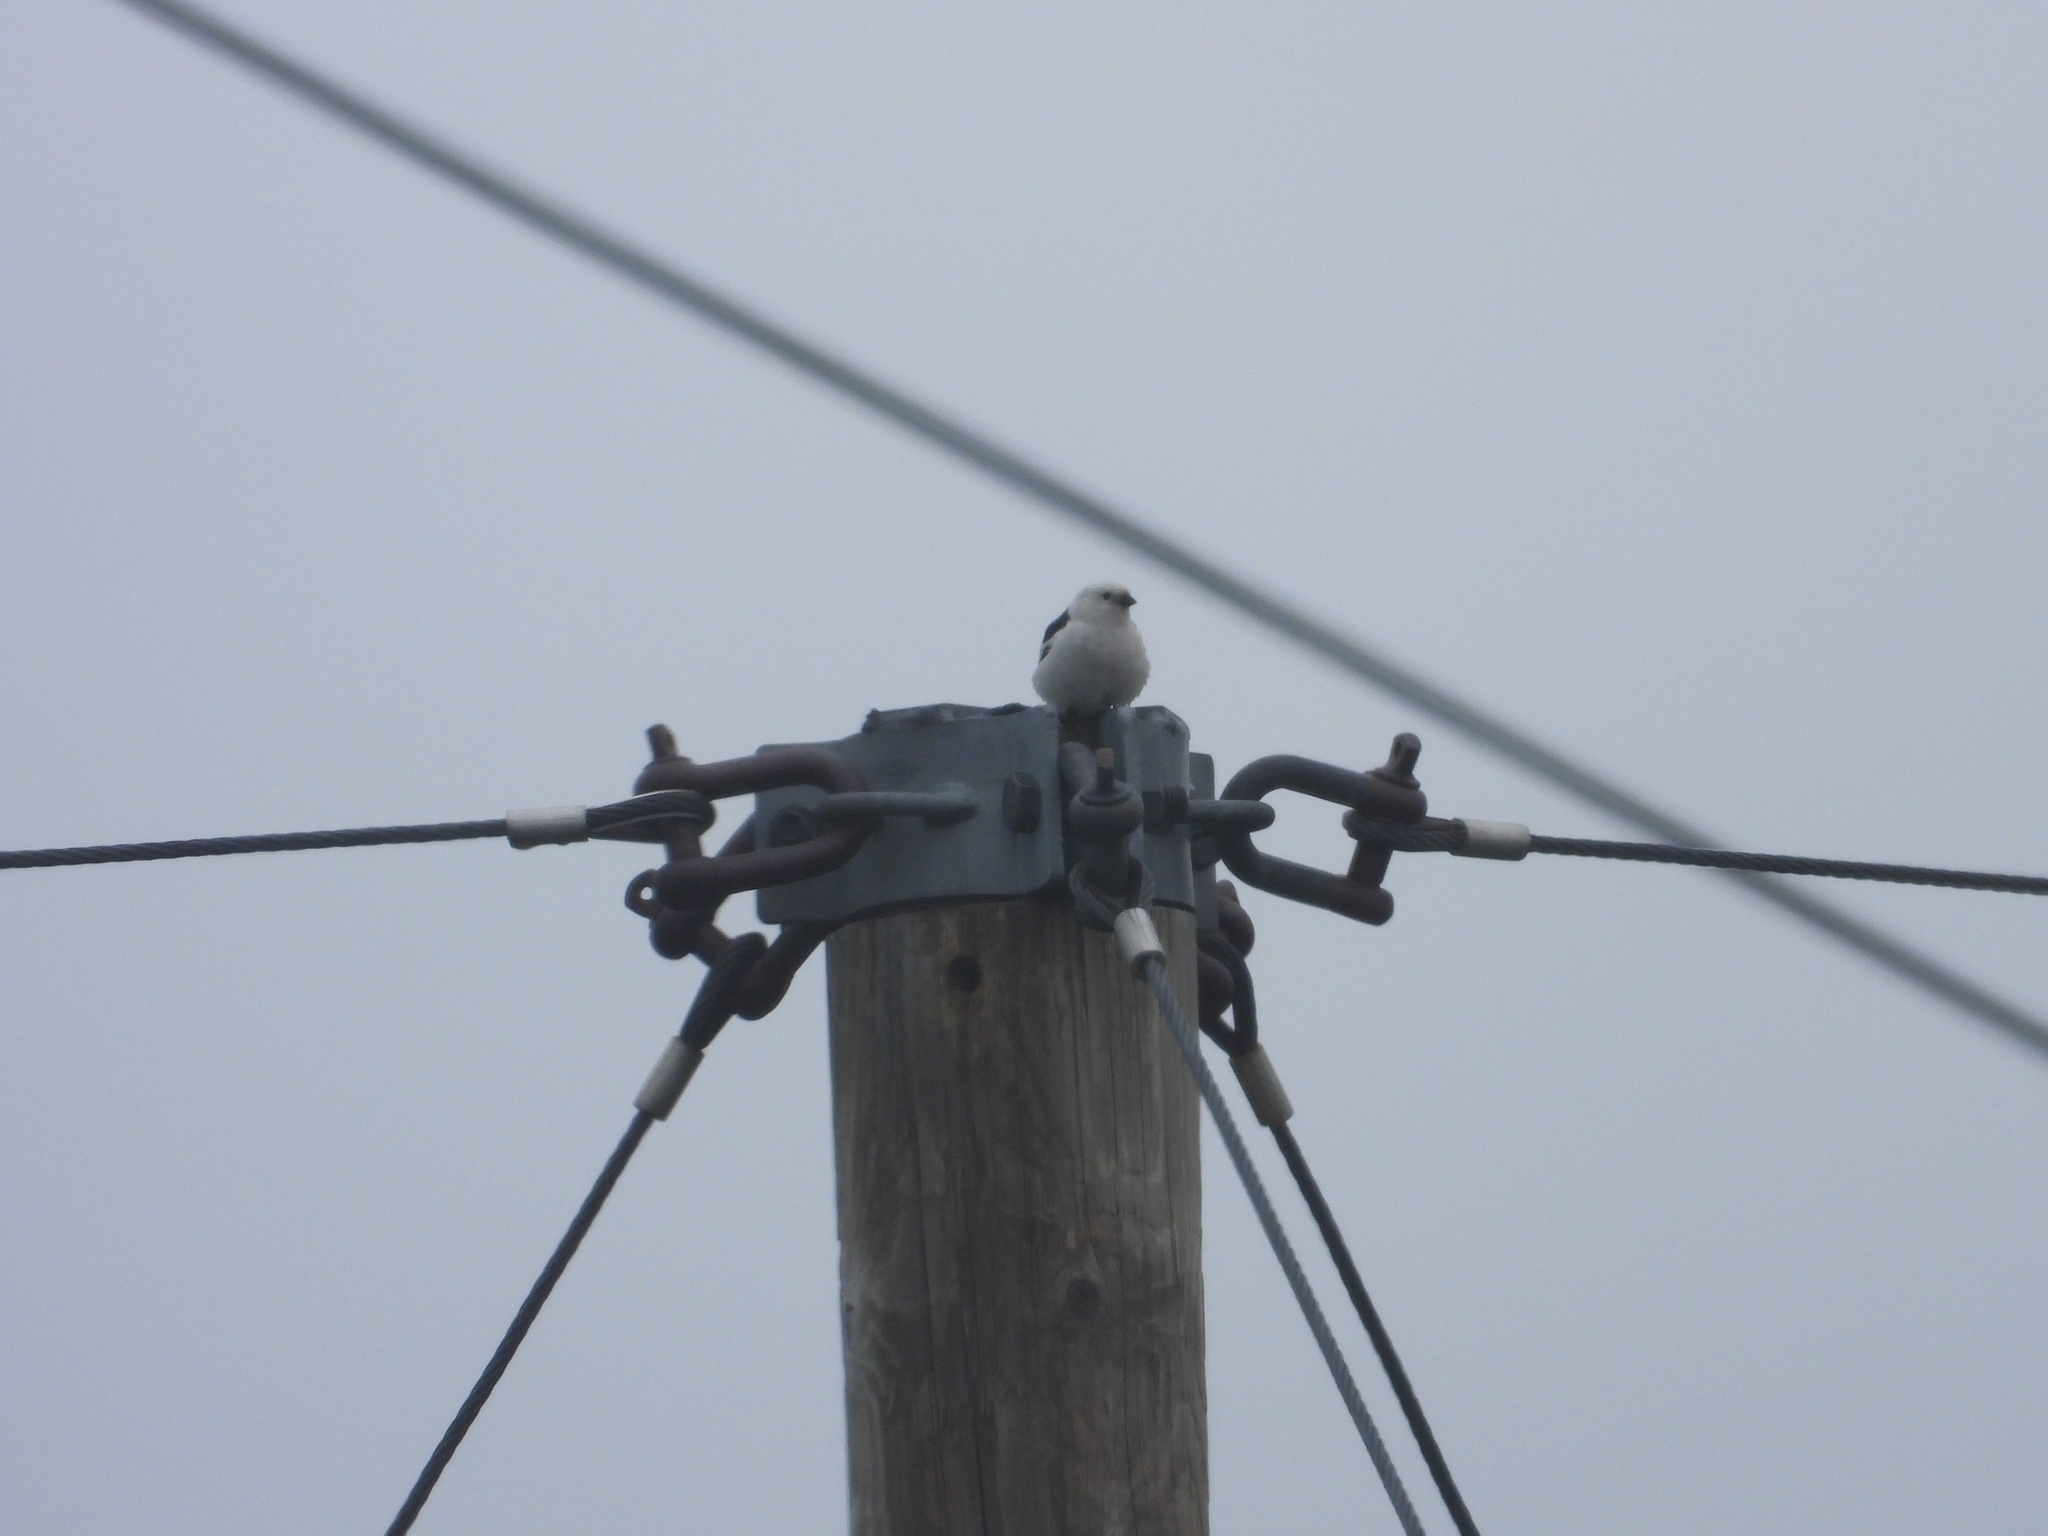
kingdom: Animalia
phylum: Chordata
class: Aves
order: Passeriformes
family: Calcariidae
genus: Plectrophenax
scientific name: Plectrophenax nivalis
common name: Snow bunting
